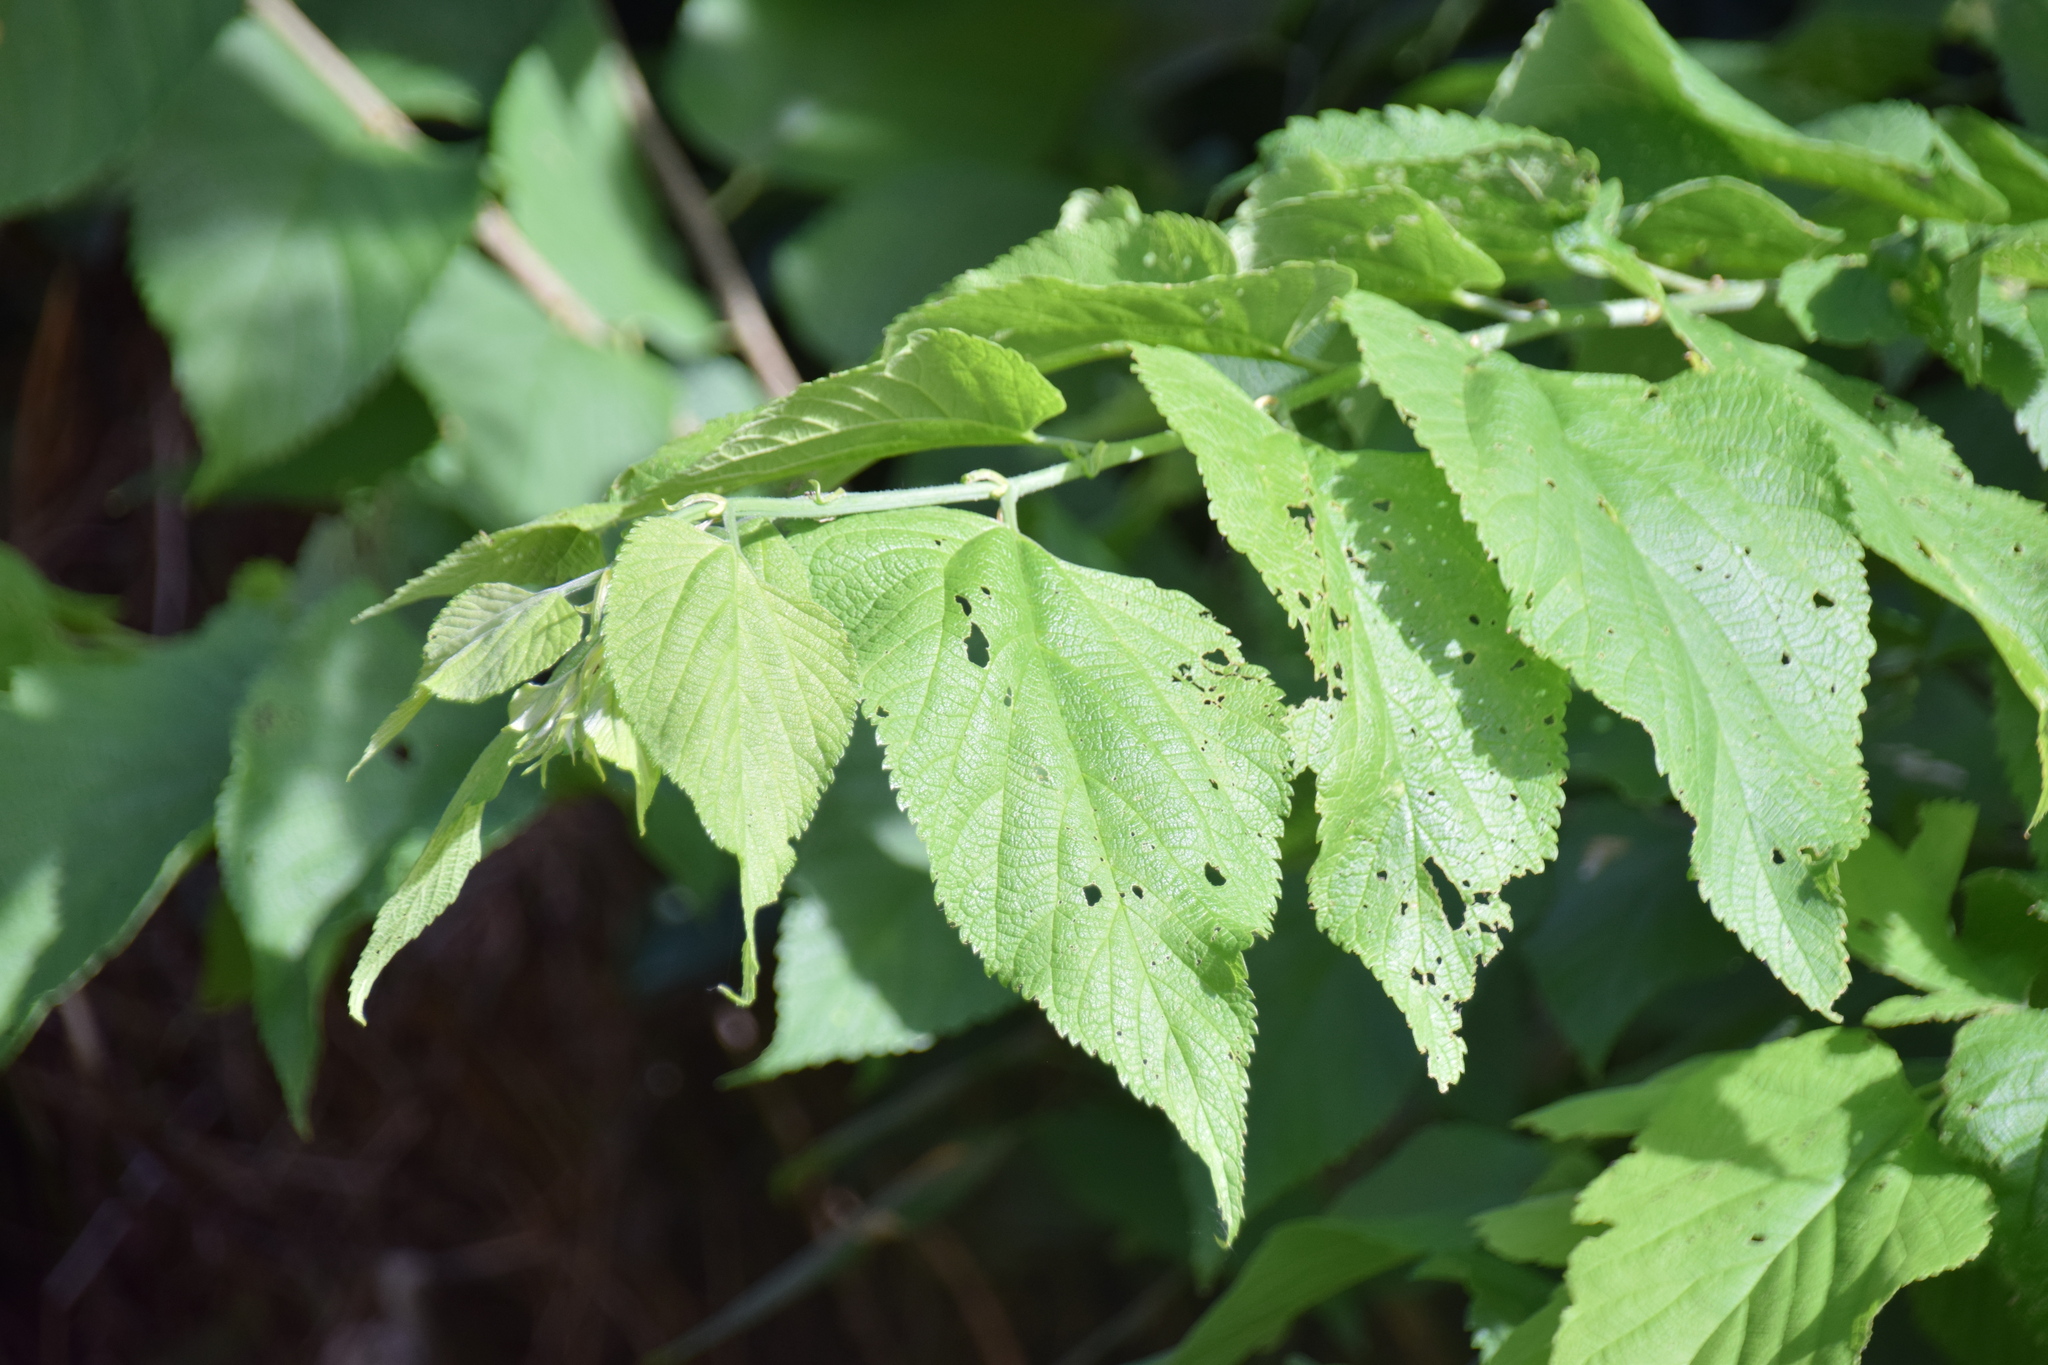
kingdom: Plantae
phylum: Tracheophyta
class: Magnoliopsida
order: Rosales
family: Cannabaceae
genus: Celtis
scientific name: Celtis occidentalis
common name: Common hackberry
